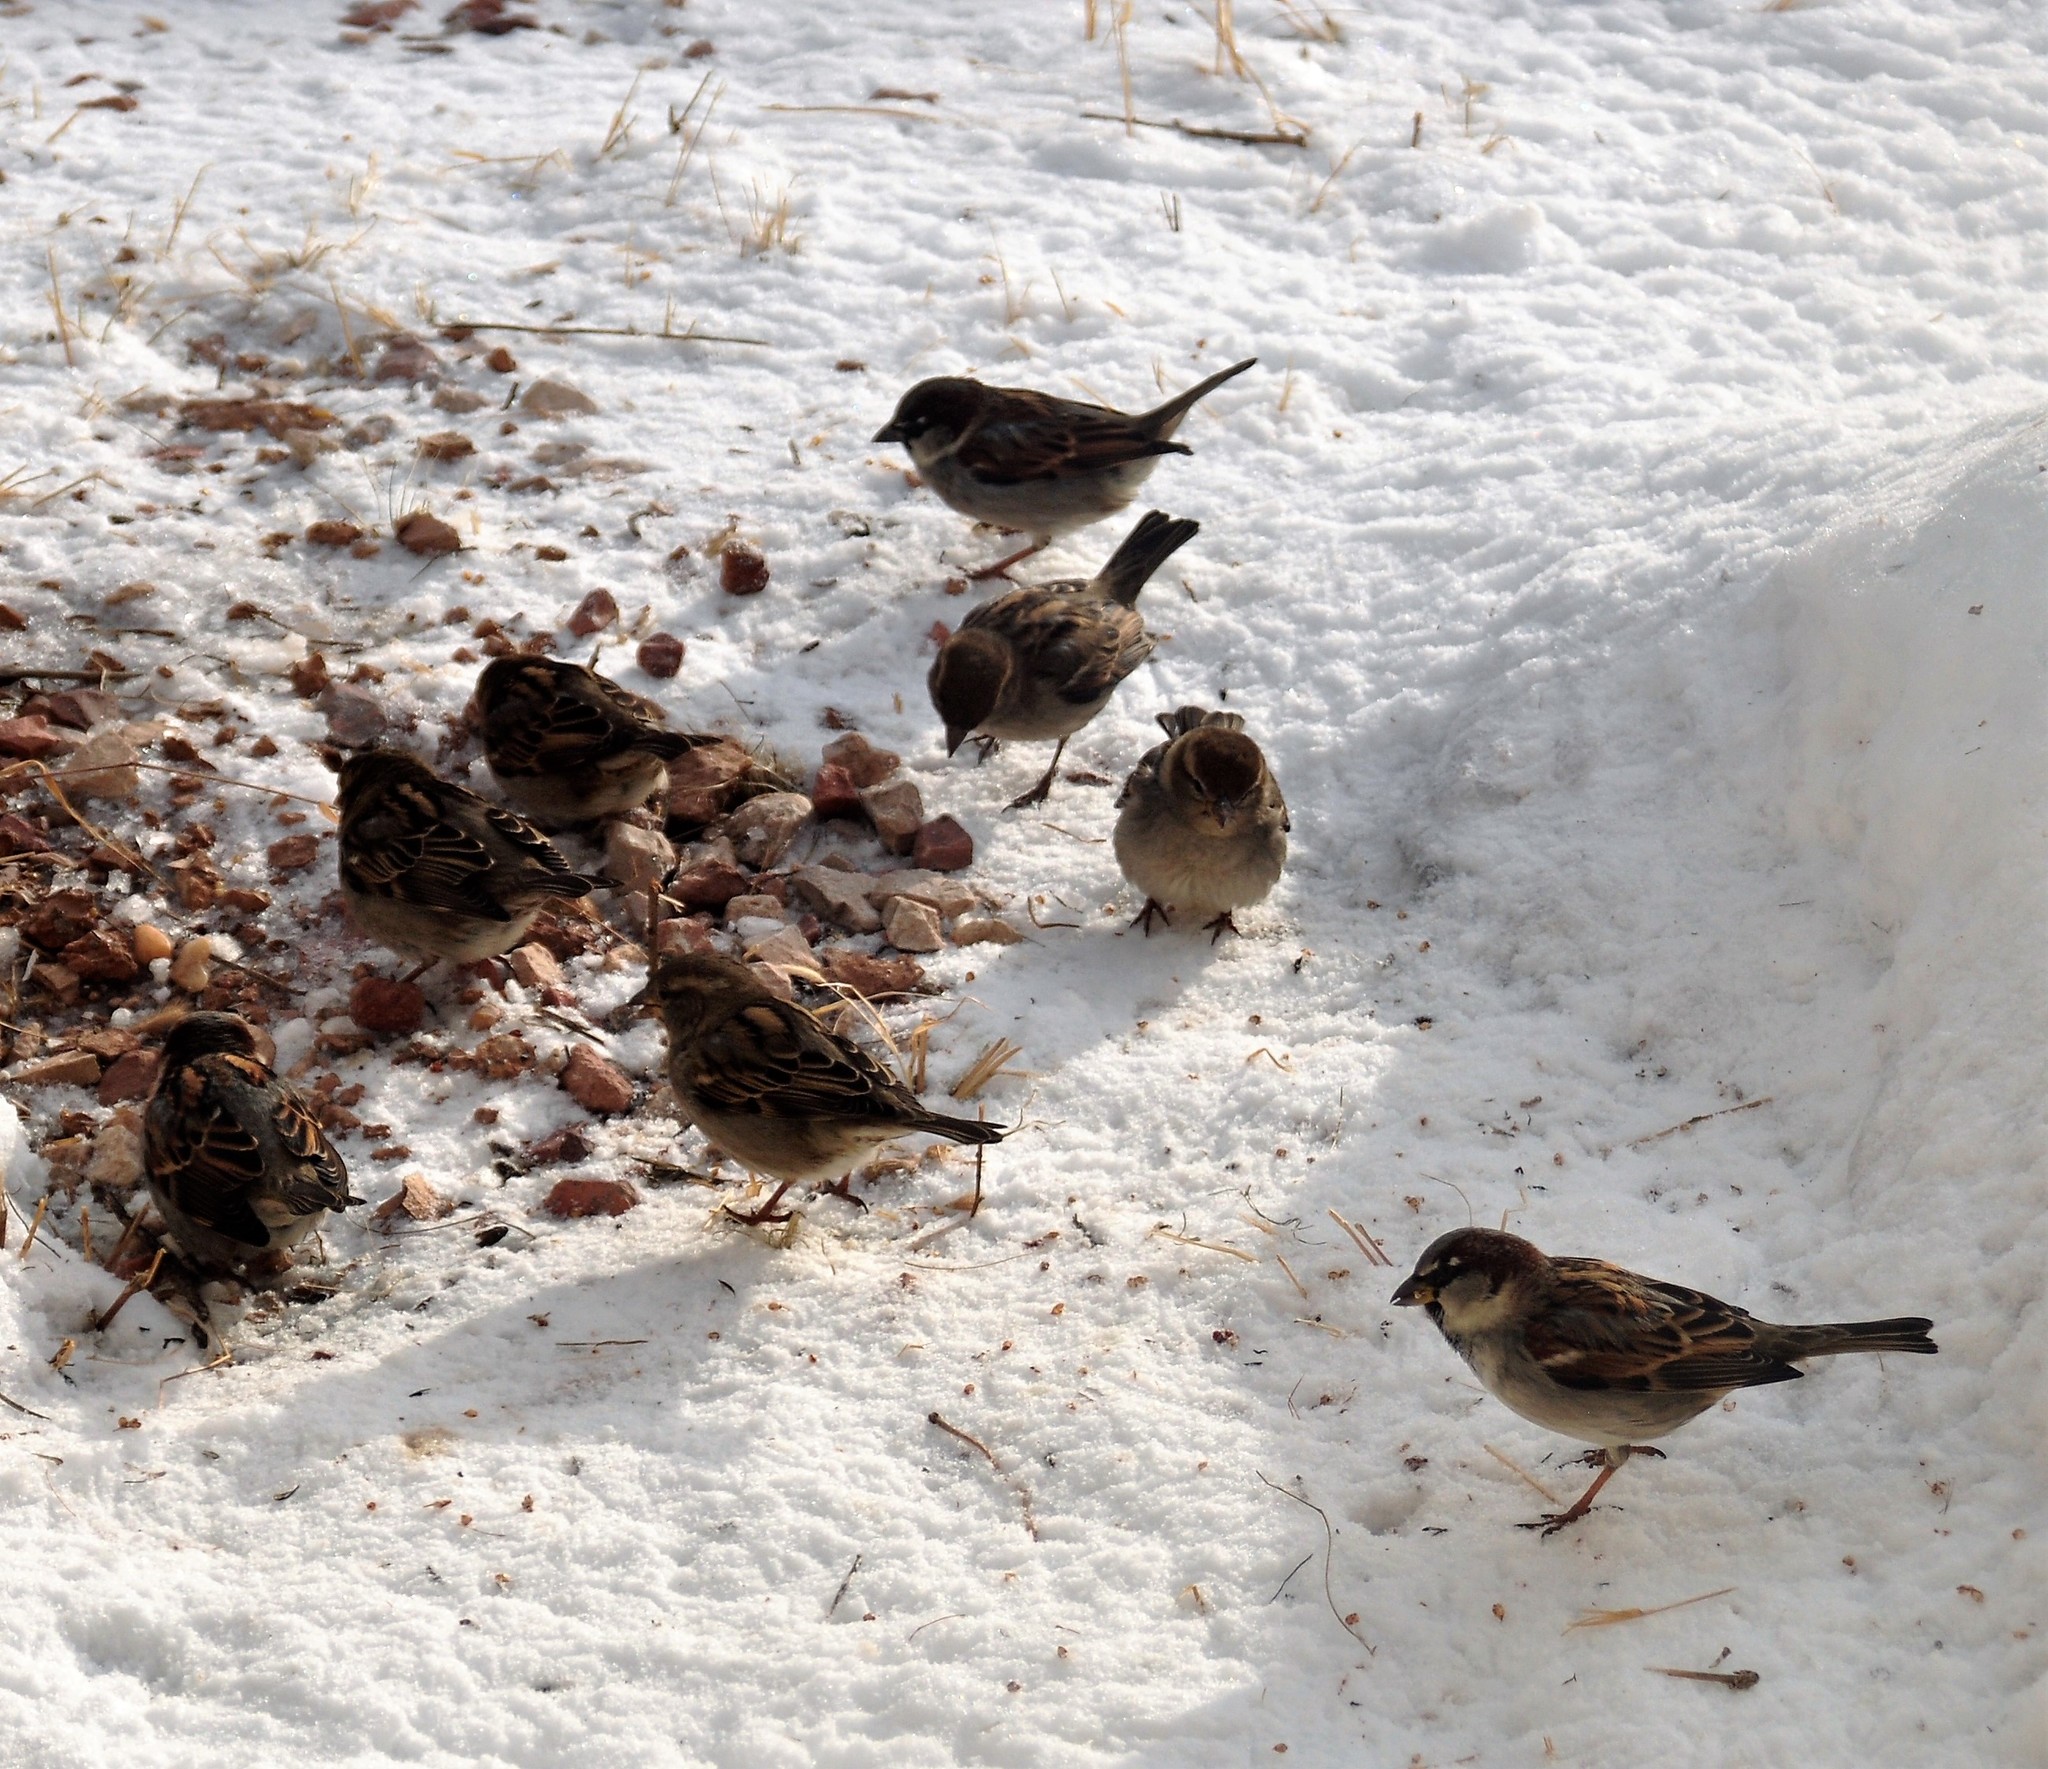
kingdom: Animalia
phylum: Chordata
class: Aves
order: Passeriformes
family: Passeridae
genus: Passer
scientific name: Passer domesticus
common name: House sparrow
